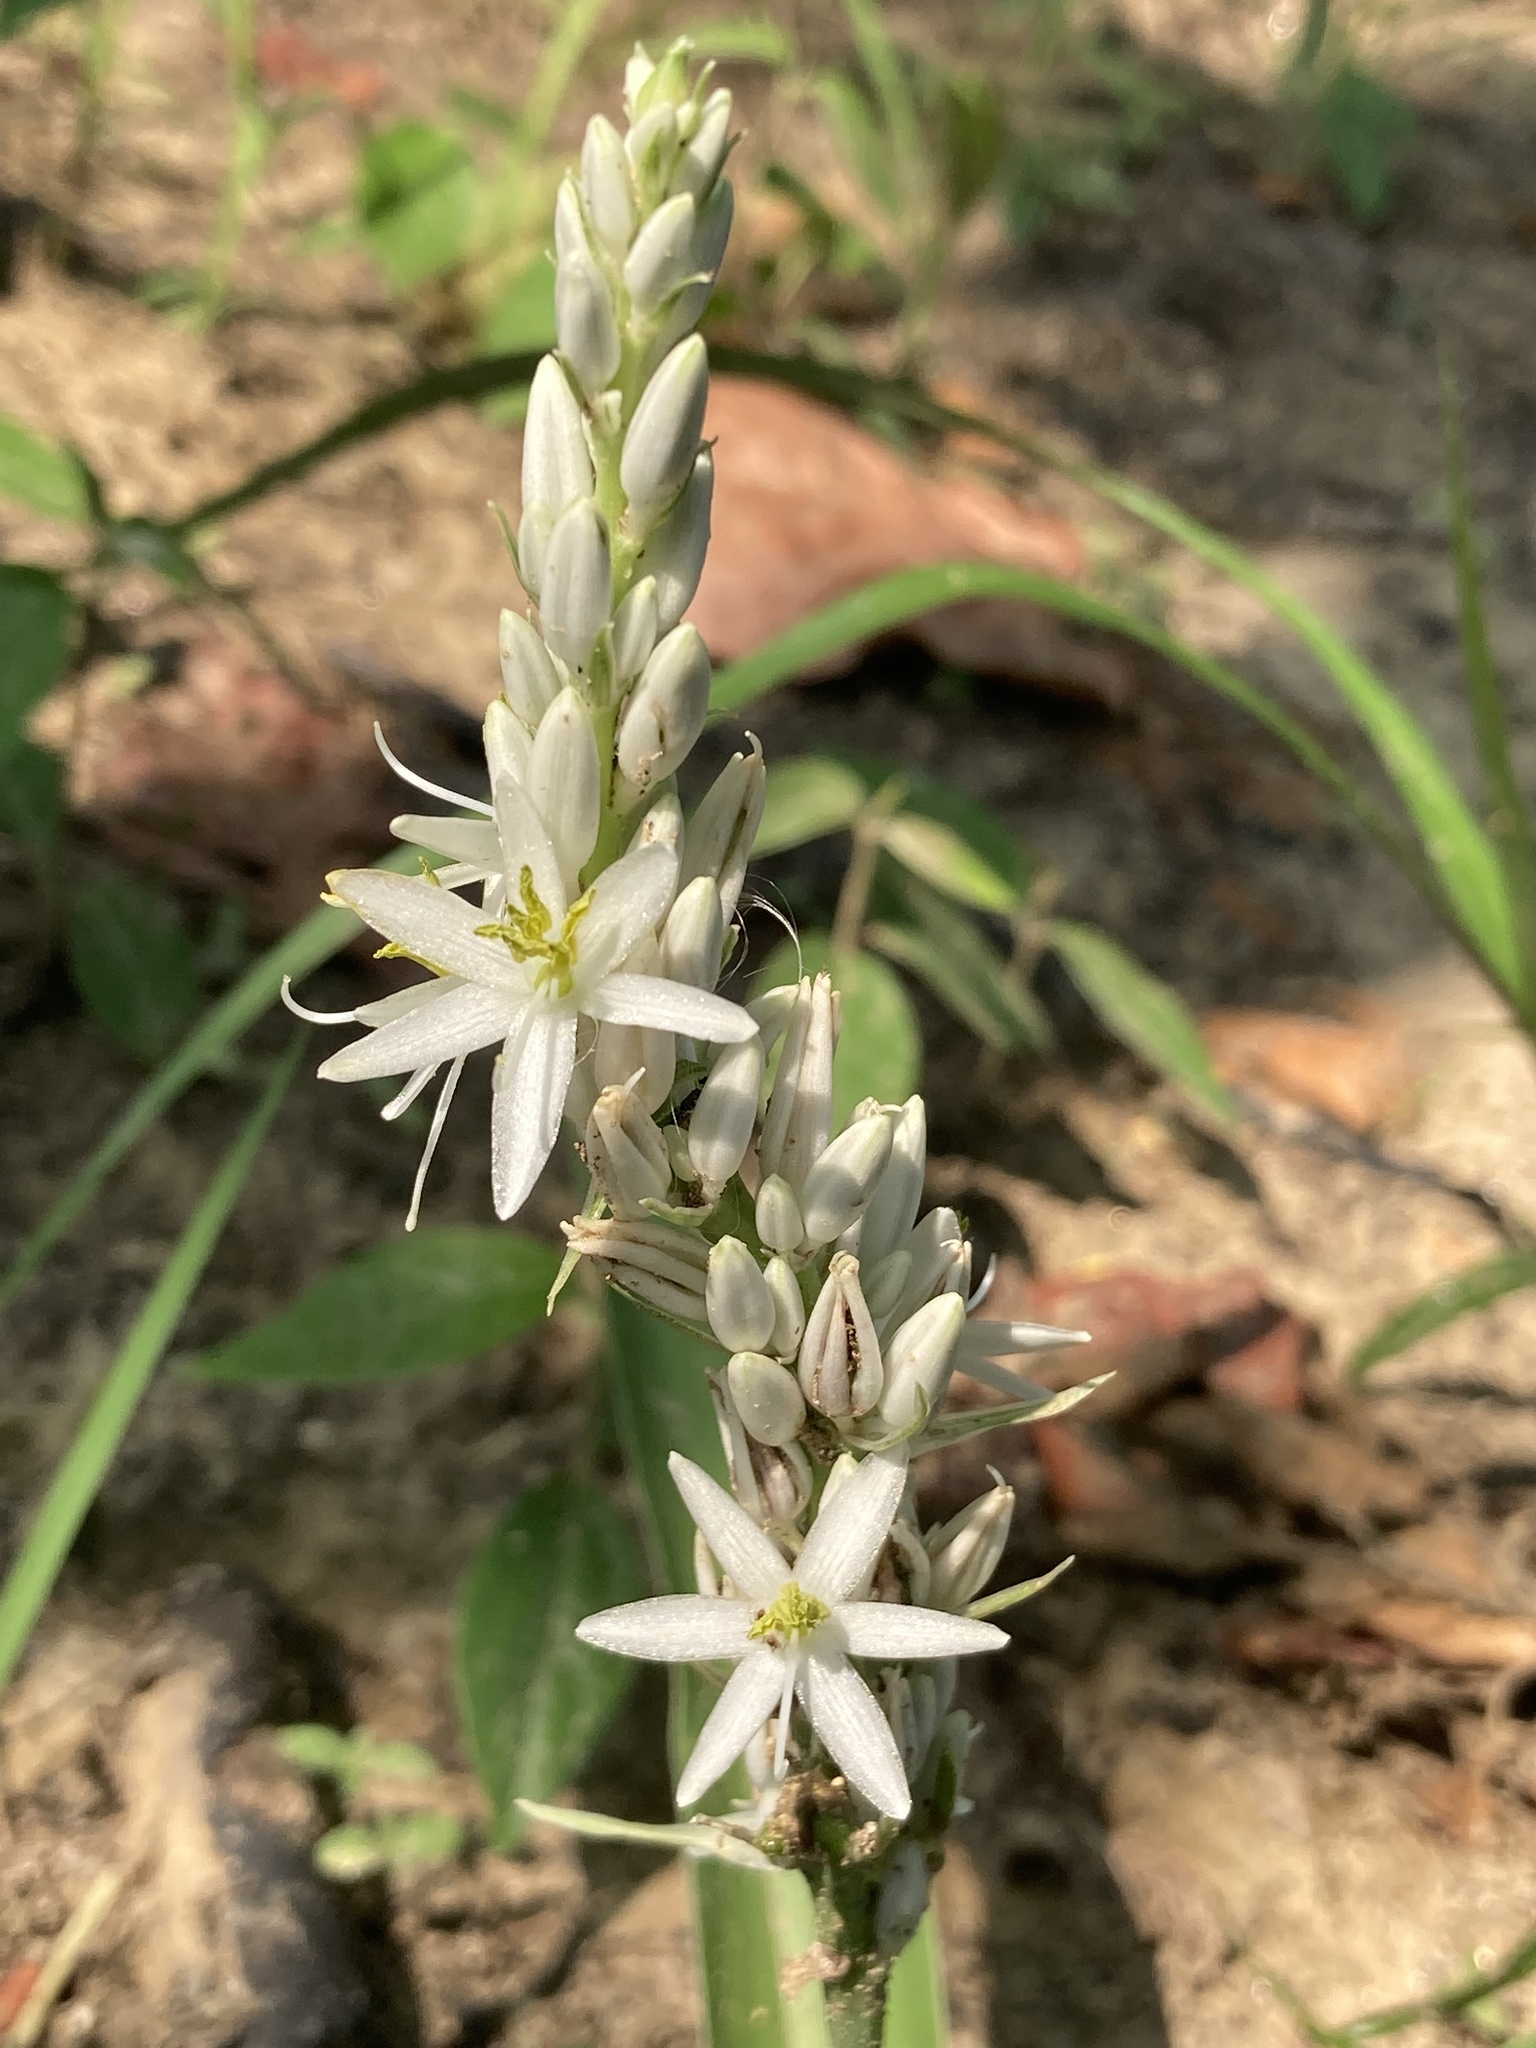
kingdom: Plantae
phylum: Tracheophyta
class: Liliopsida
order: Asparagales
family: Asparagaceae
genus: Chlorophytum
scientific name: Chlorophytum arundinaceum
